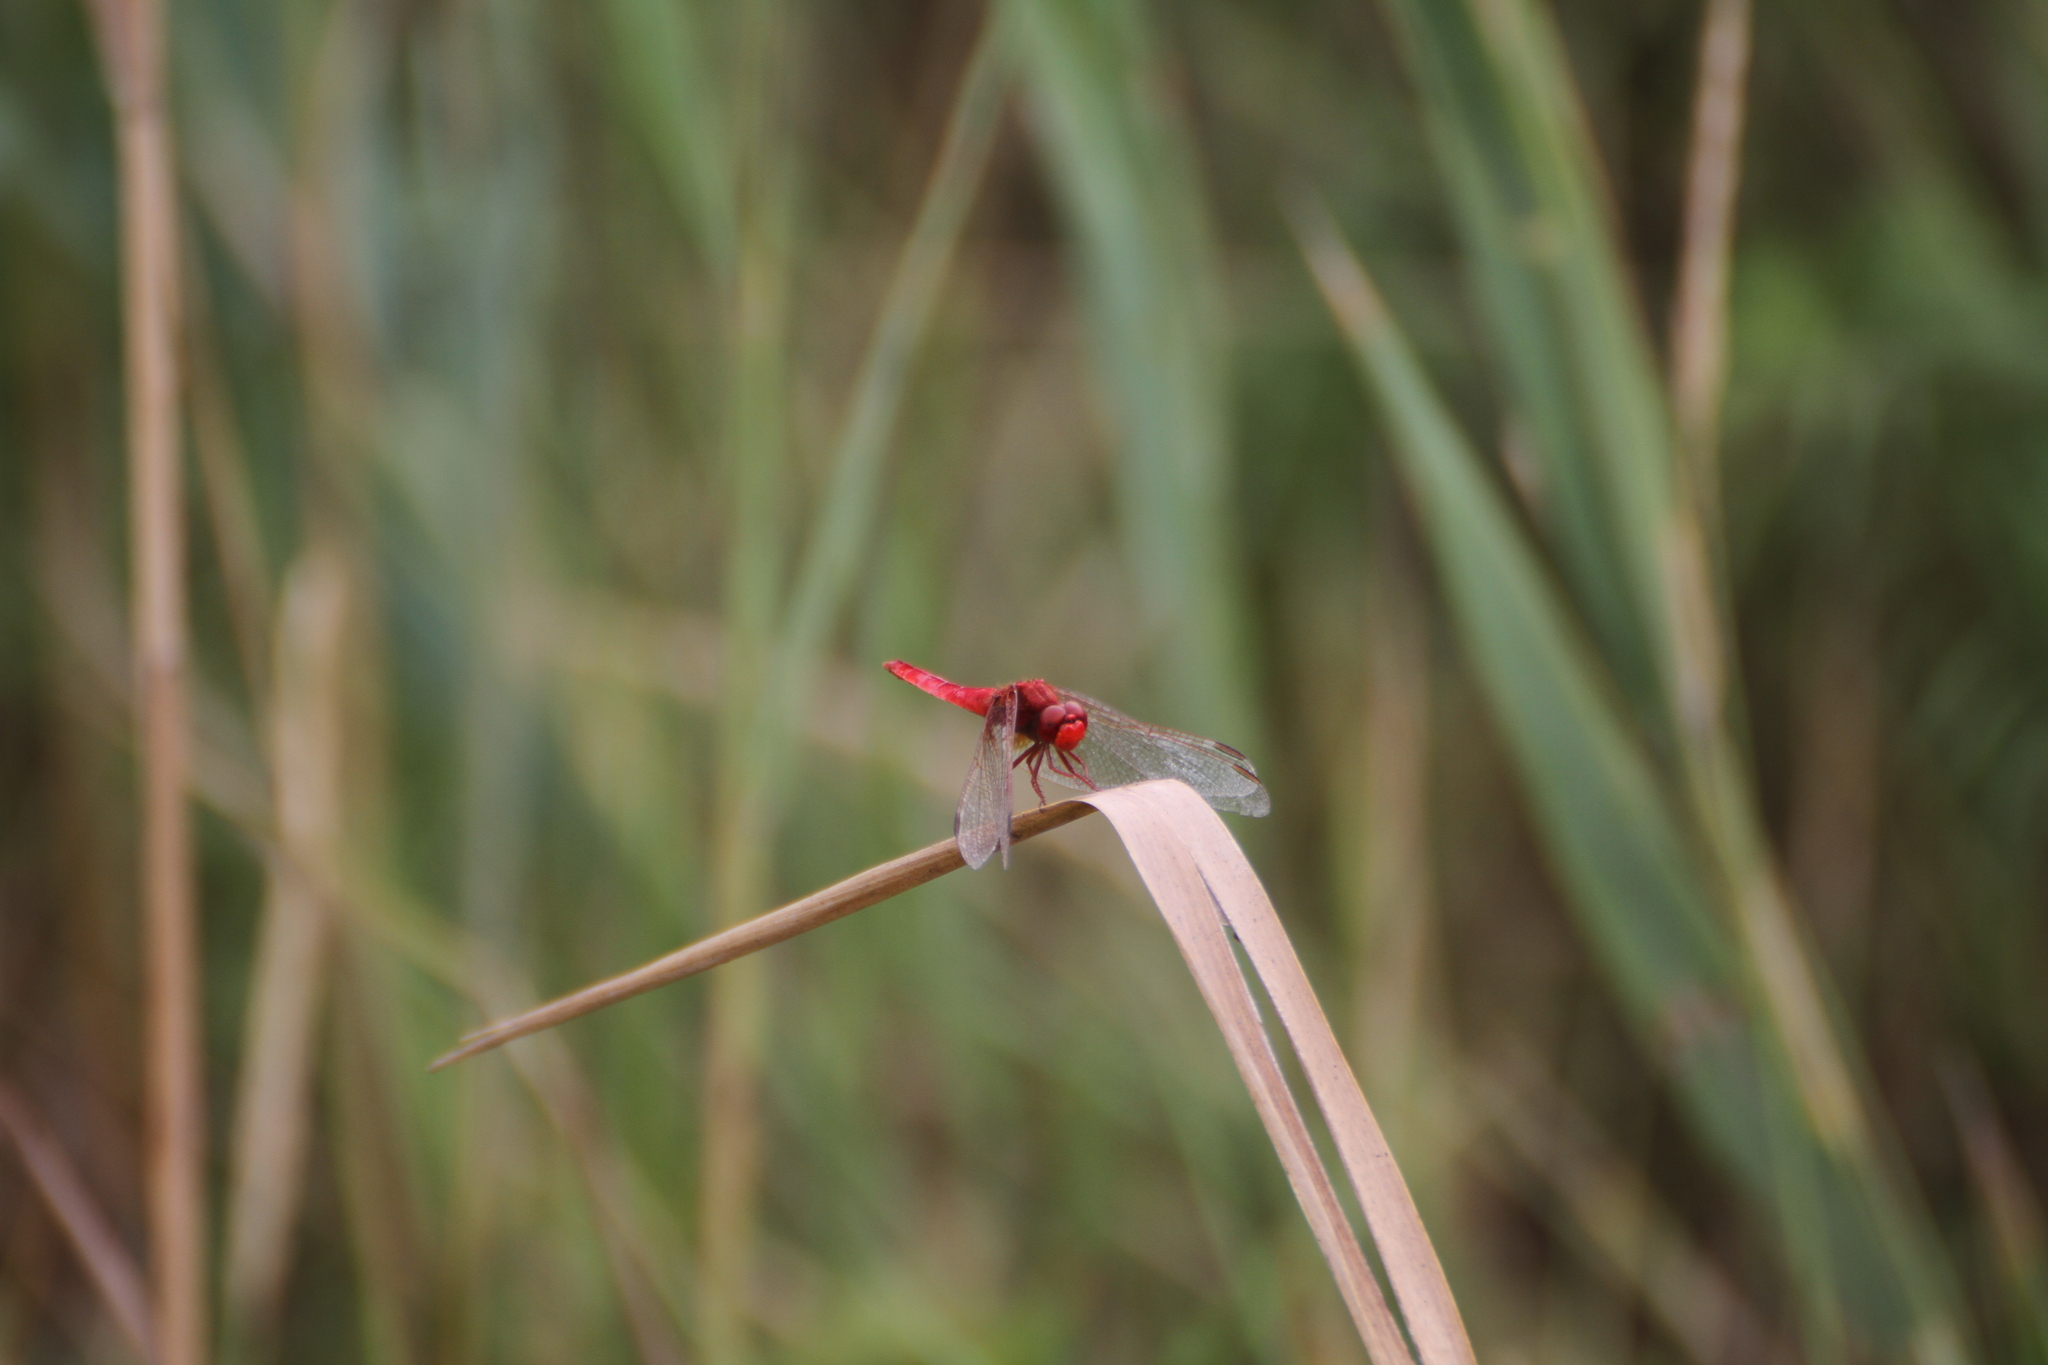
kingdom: Animalia
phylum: Arthropoda
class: Insecta
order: Odonata
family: Libellulidae
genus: Crocothemis
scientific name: Crocothemis erythraea
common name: Scarlet dragonfly
